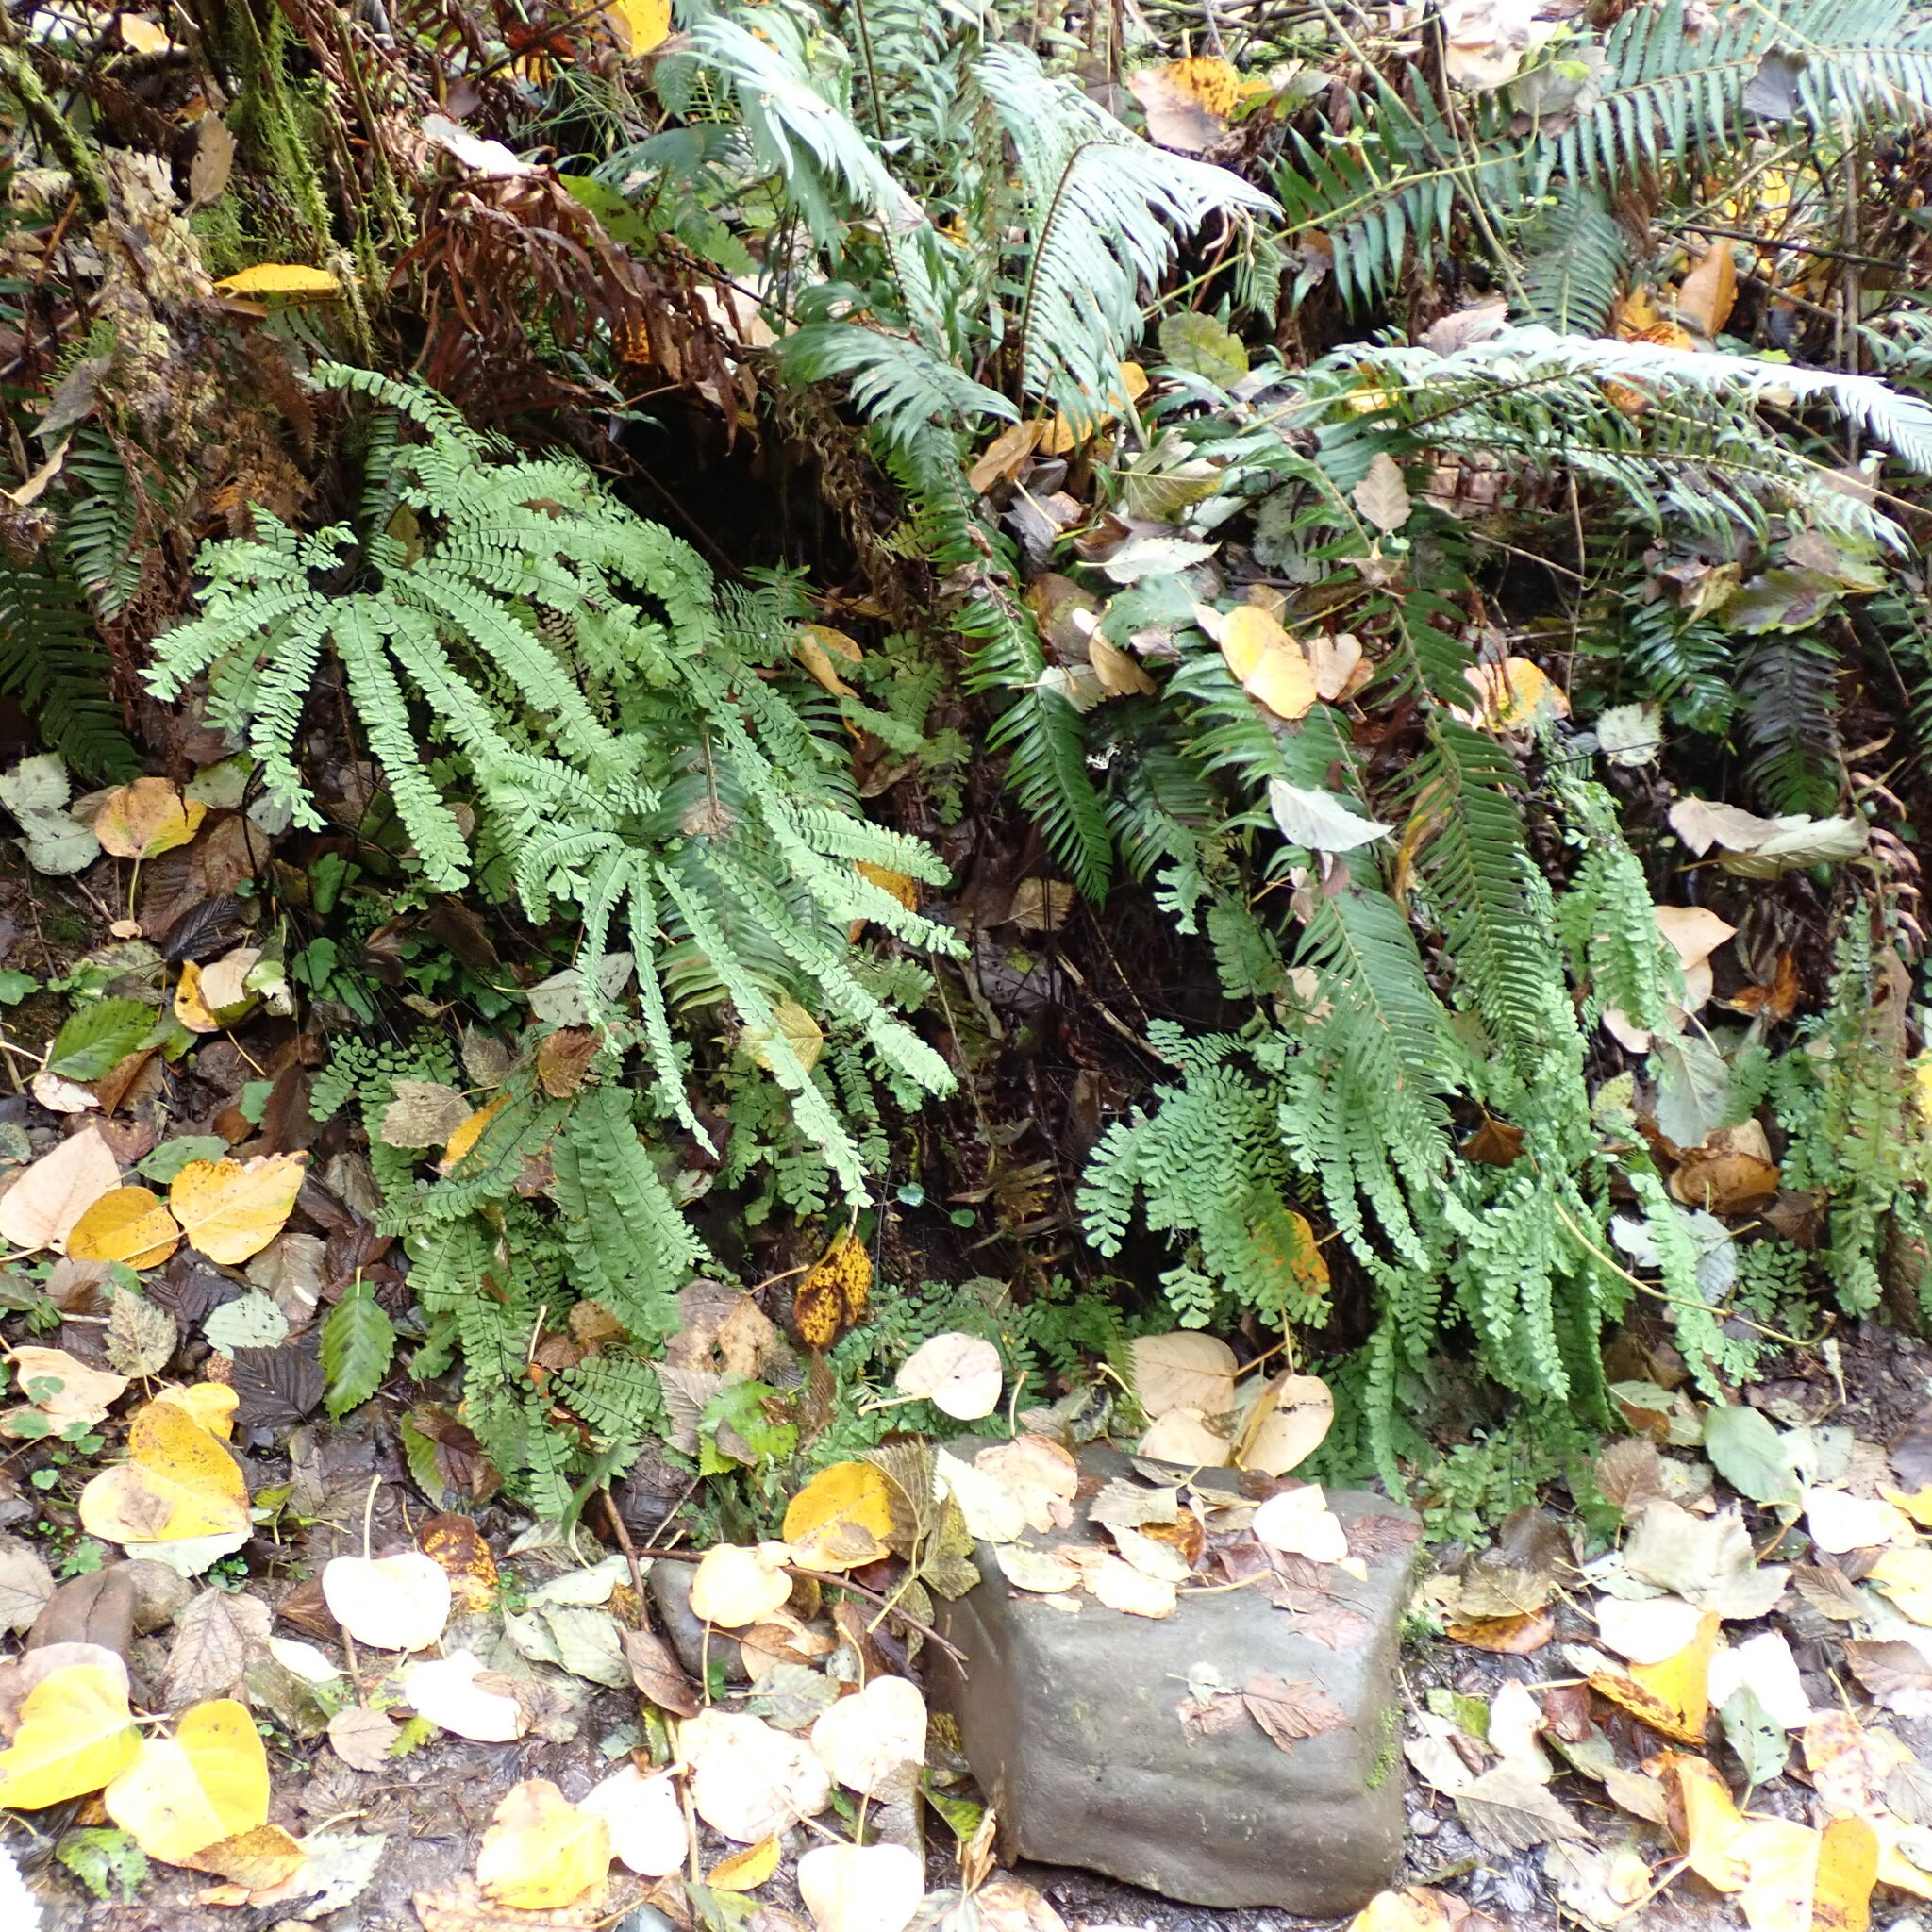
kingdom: Plantae
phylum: Tracheophyta
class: Polypodiopsida
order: Polypodiales
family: Pteridaceae
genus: Adiantum
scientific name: Adiantum aleuticum
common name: Aleutian maidenhair fern
